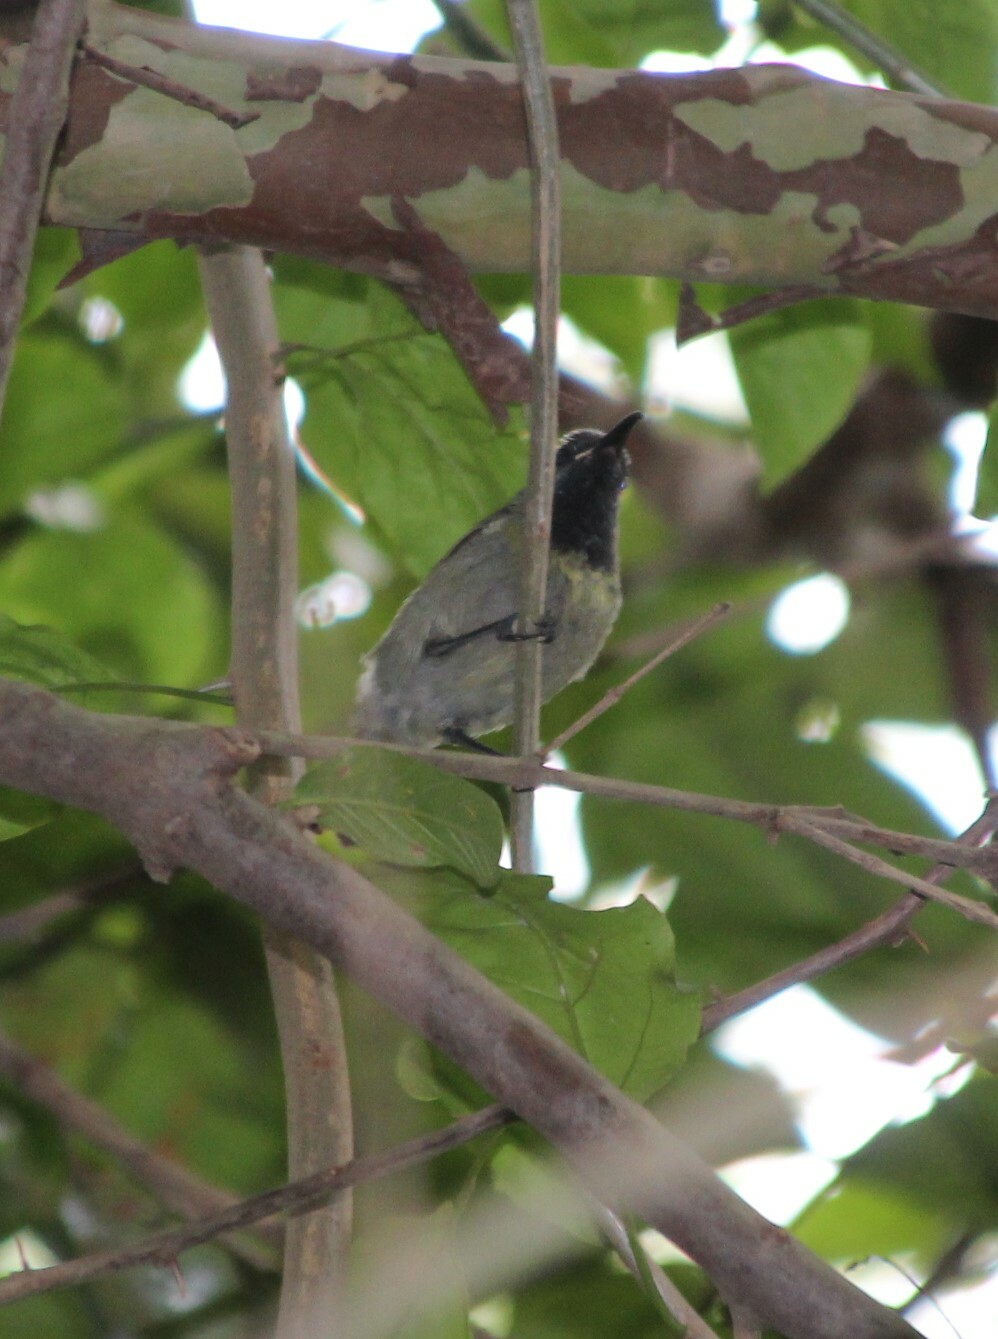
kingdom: Animalia
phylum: Chordata
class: Aves
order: Passeriformes
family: Nectariniidae
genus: Cyanomitra
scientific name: Cyanomitra verticalis
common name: Green-headed sunbird
